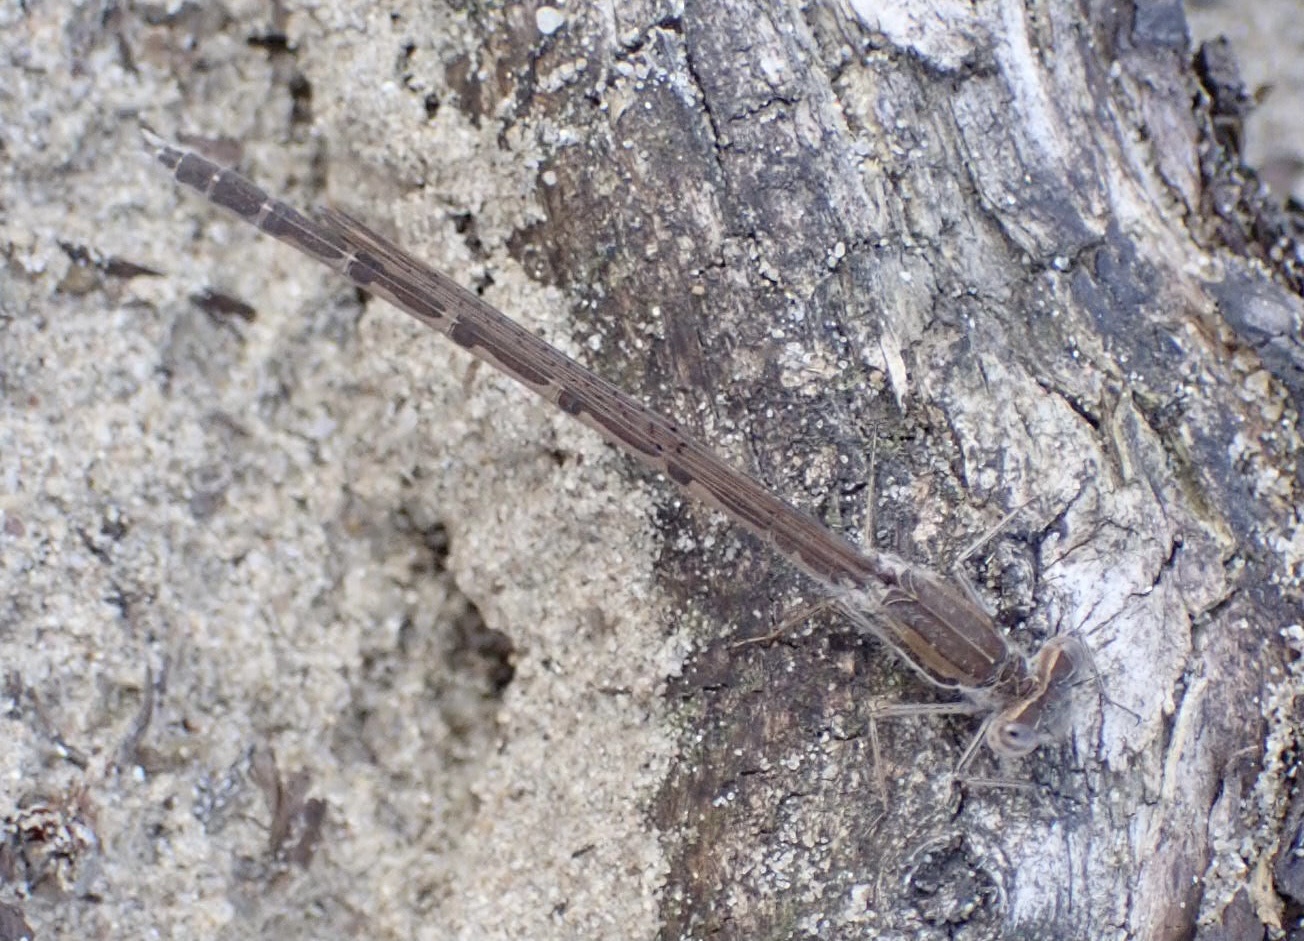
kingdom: Animalia
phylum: Arthropoda
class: Insecta
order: Odonata
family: Lestidae
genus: Sympecma
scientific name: Sympecma fusca
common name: Common winter damsel
